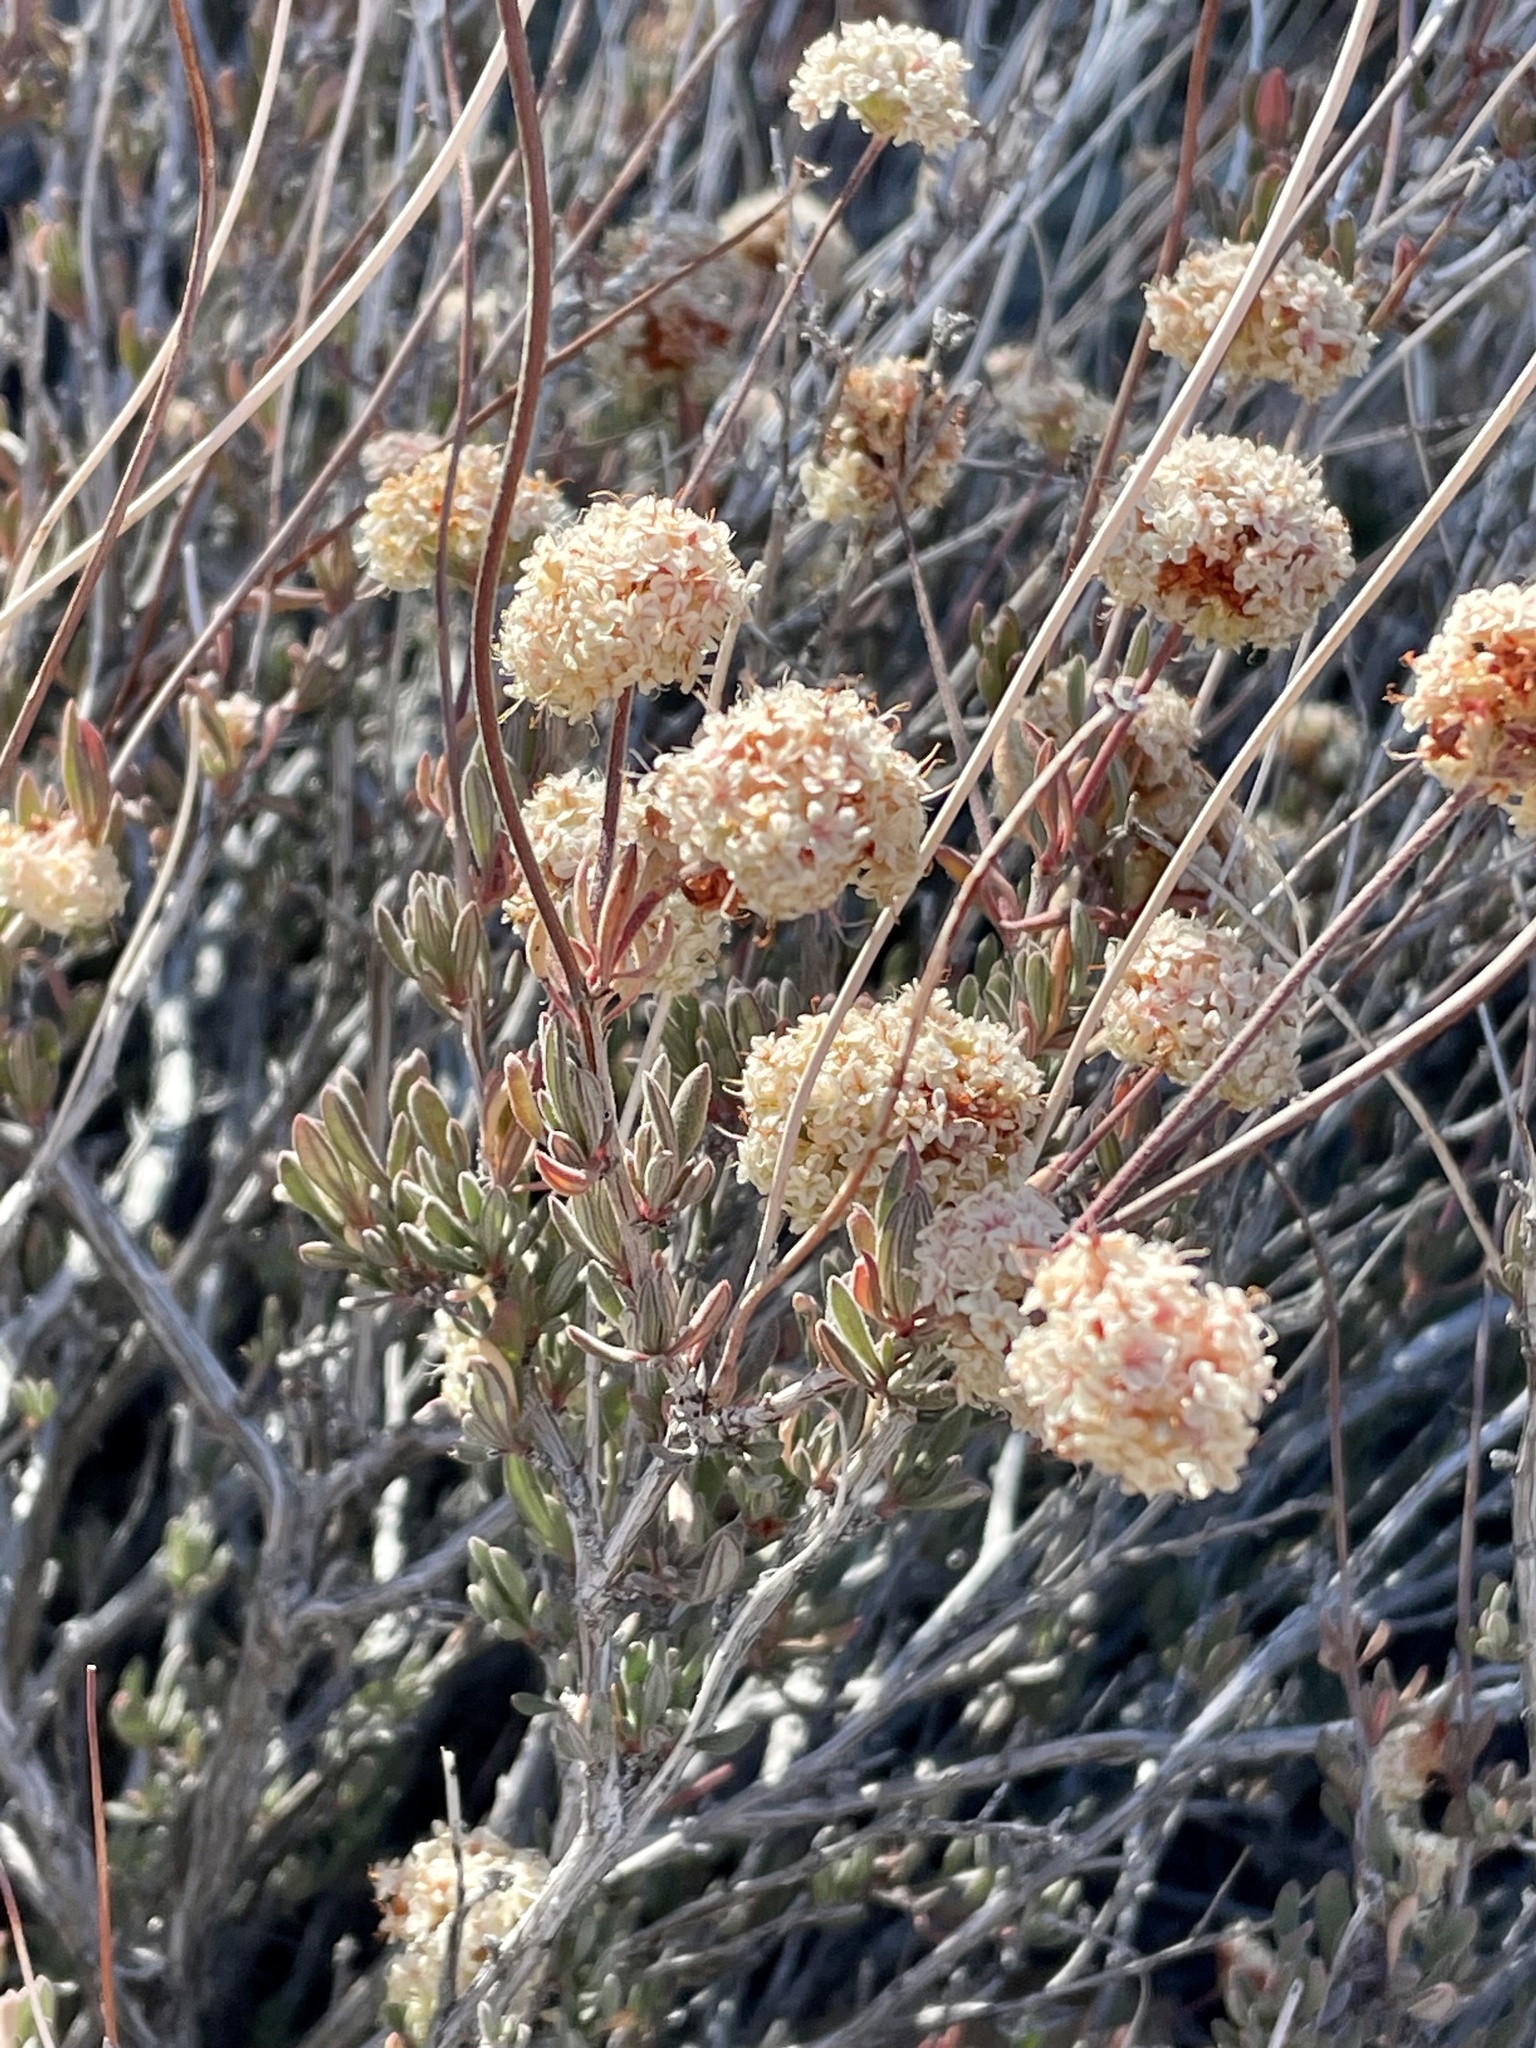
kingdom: Plantae
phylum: Tracheophyta
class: Magnoliopsida
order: Caryophyllales
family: Polygonaceae
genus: Eriogonum
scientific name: Eriogonum fasciculatum
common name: California wild buckwheat
